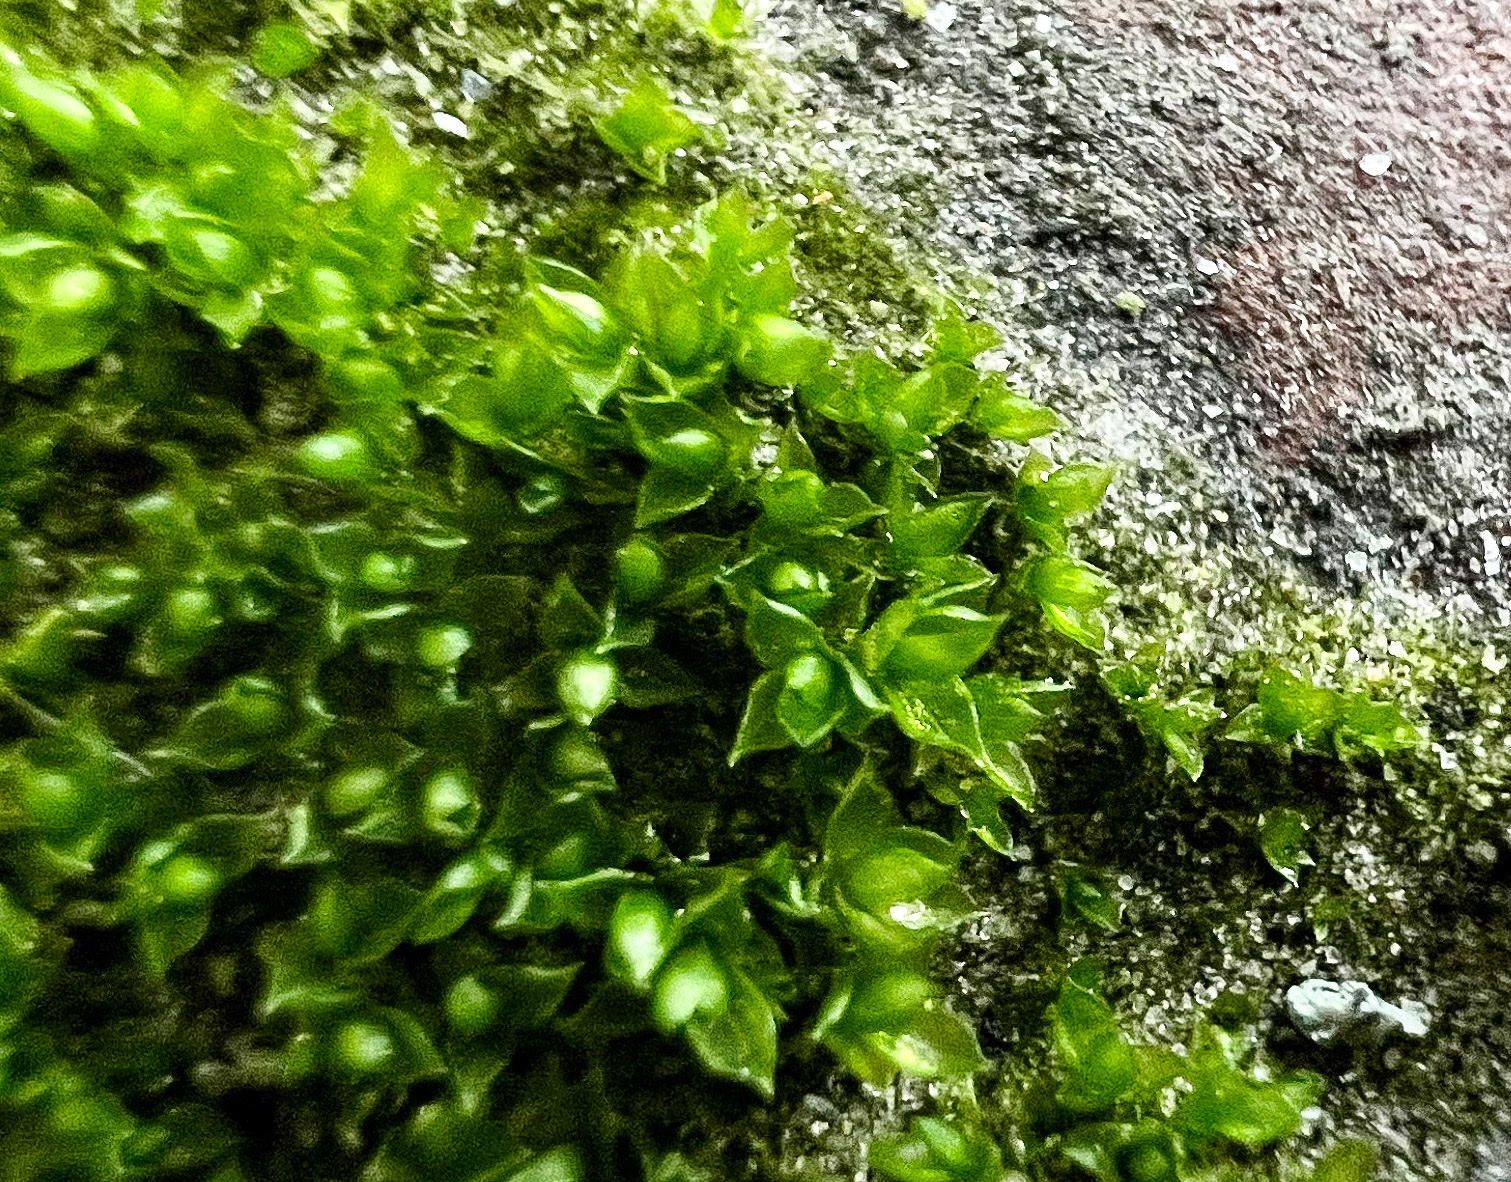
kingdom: Plantae
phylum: Bryophyta
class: Bryopsida
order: Funariales
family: Funariaceae
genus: Funaria
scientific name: Funaria hygrometrica
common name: Common cord moss
